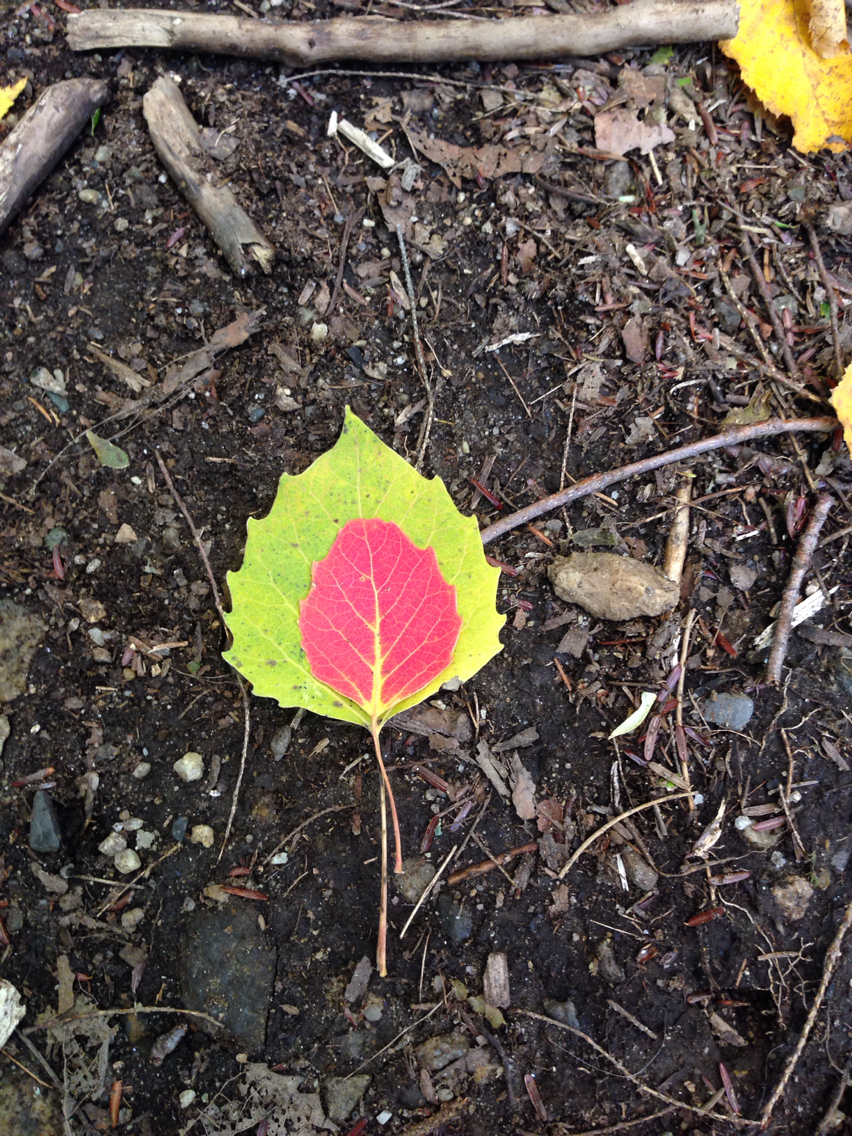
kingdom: Plantae
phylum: Tracheophyta
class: Magnoliopsida
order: Malpighiales
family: Salicaceae
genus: Populus
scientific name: Populus grandidentata
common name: Bigtooth aspen
